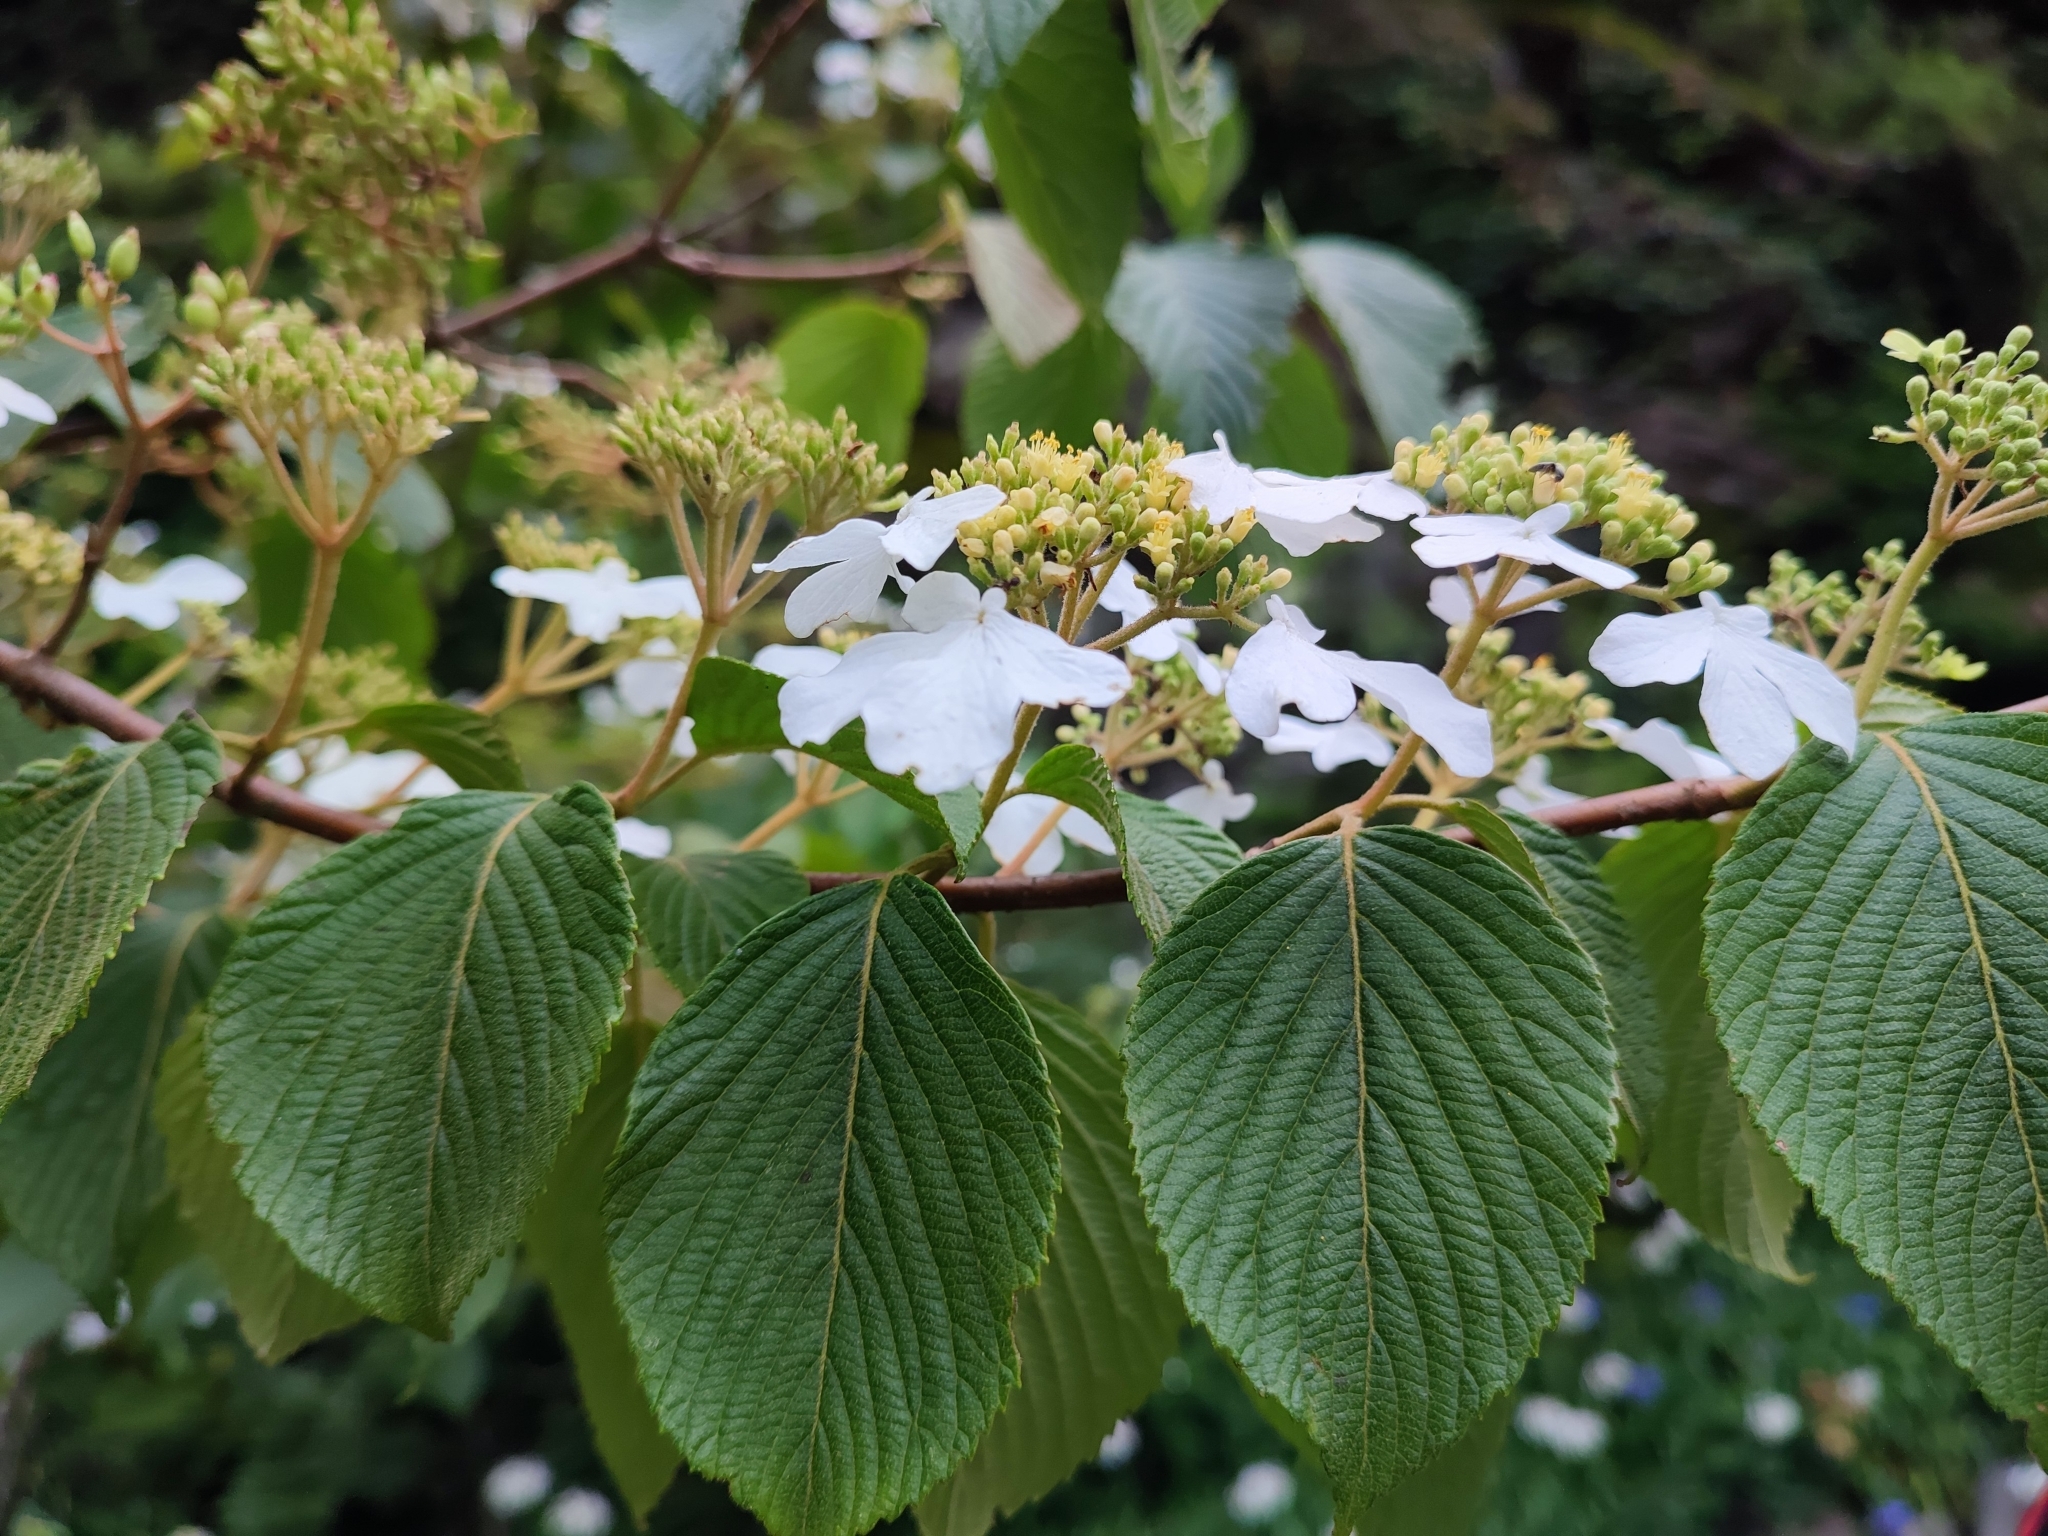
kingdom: Plantae
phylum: Tracheophyta
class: Magnoliopsida
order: Dipsacales
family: Viburnaceae
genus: Viburnum
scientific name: Viburnum plicatum
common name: Japanese snowball
